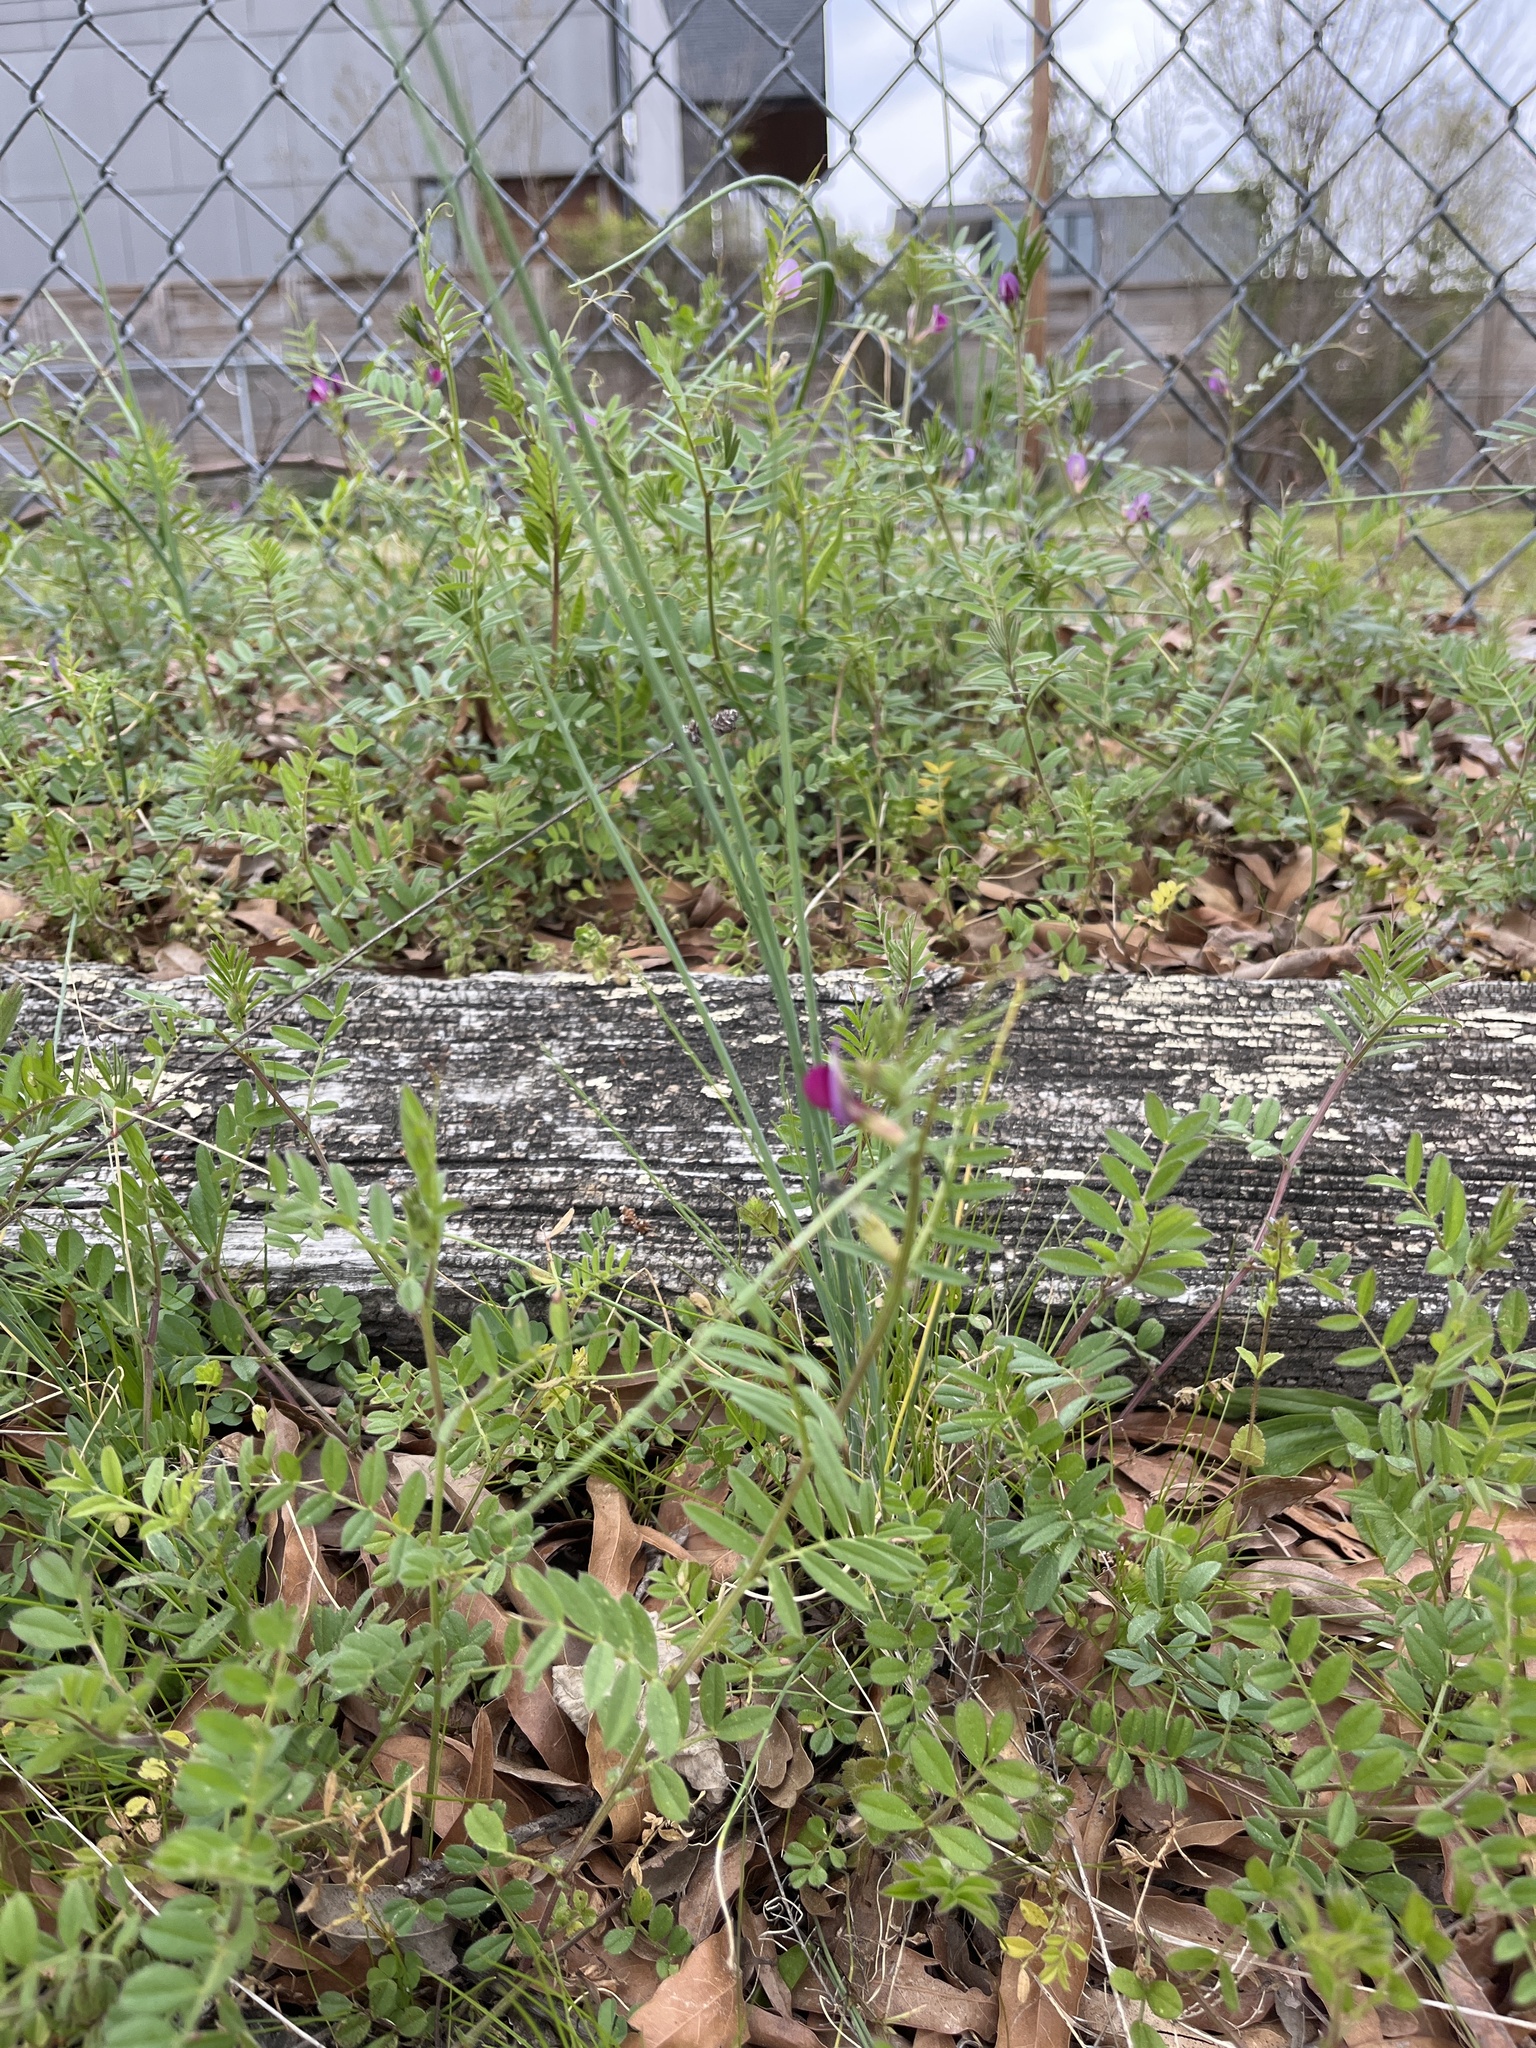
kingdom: Plantae
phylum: Tracheophyta
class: Magnoliopsida
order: Fabales
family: Fabaceae
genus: Vicia
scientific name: Vicia sativa
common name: Garden vetch
